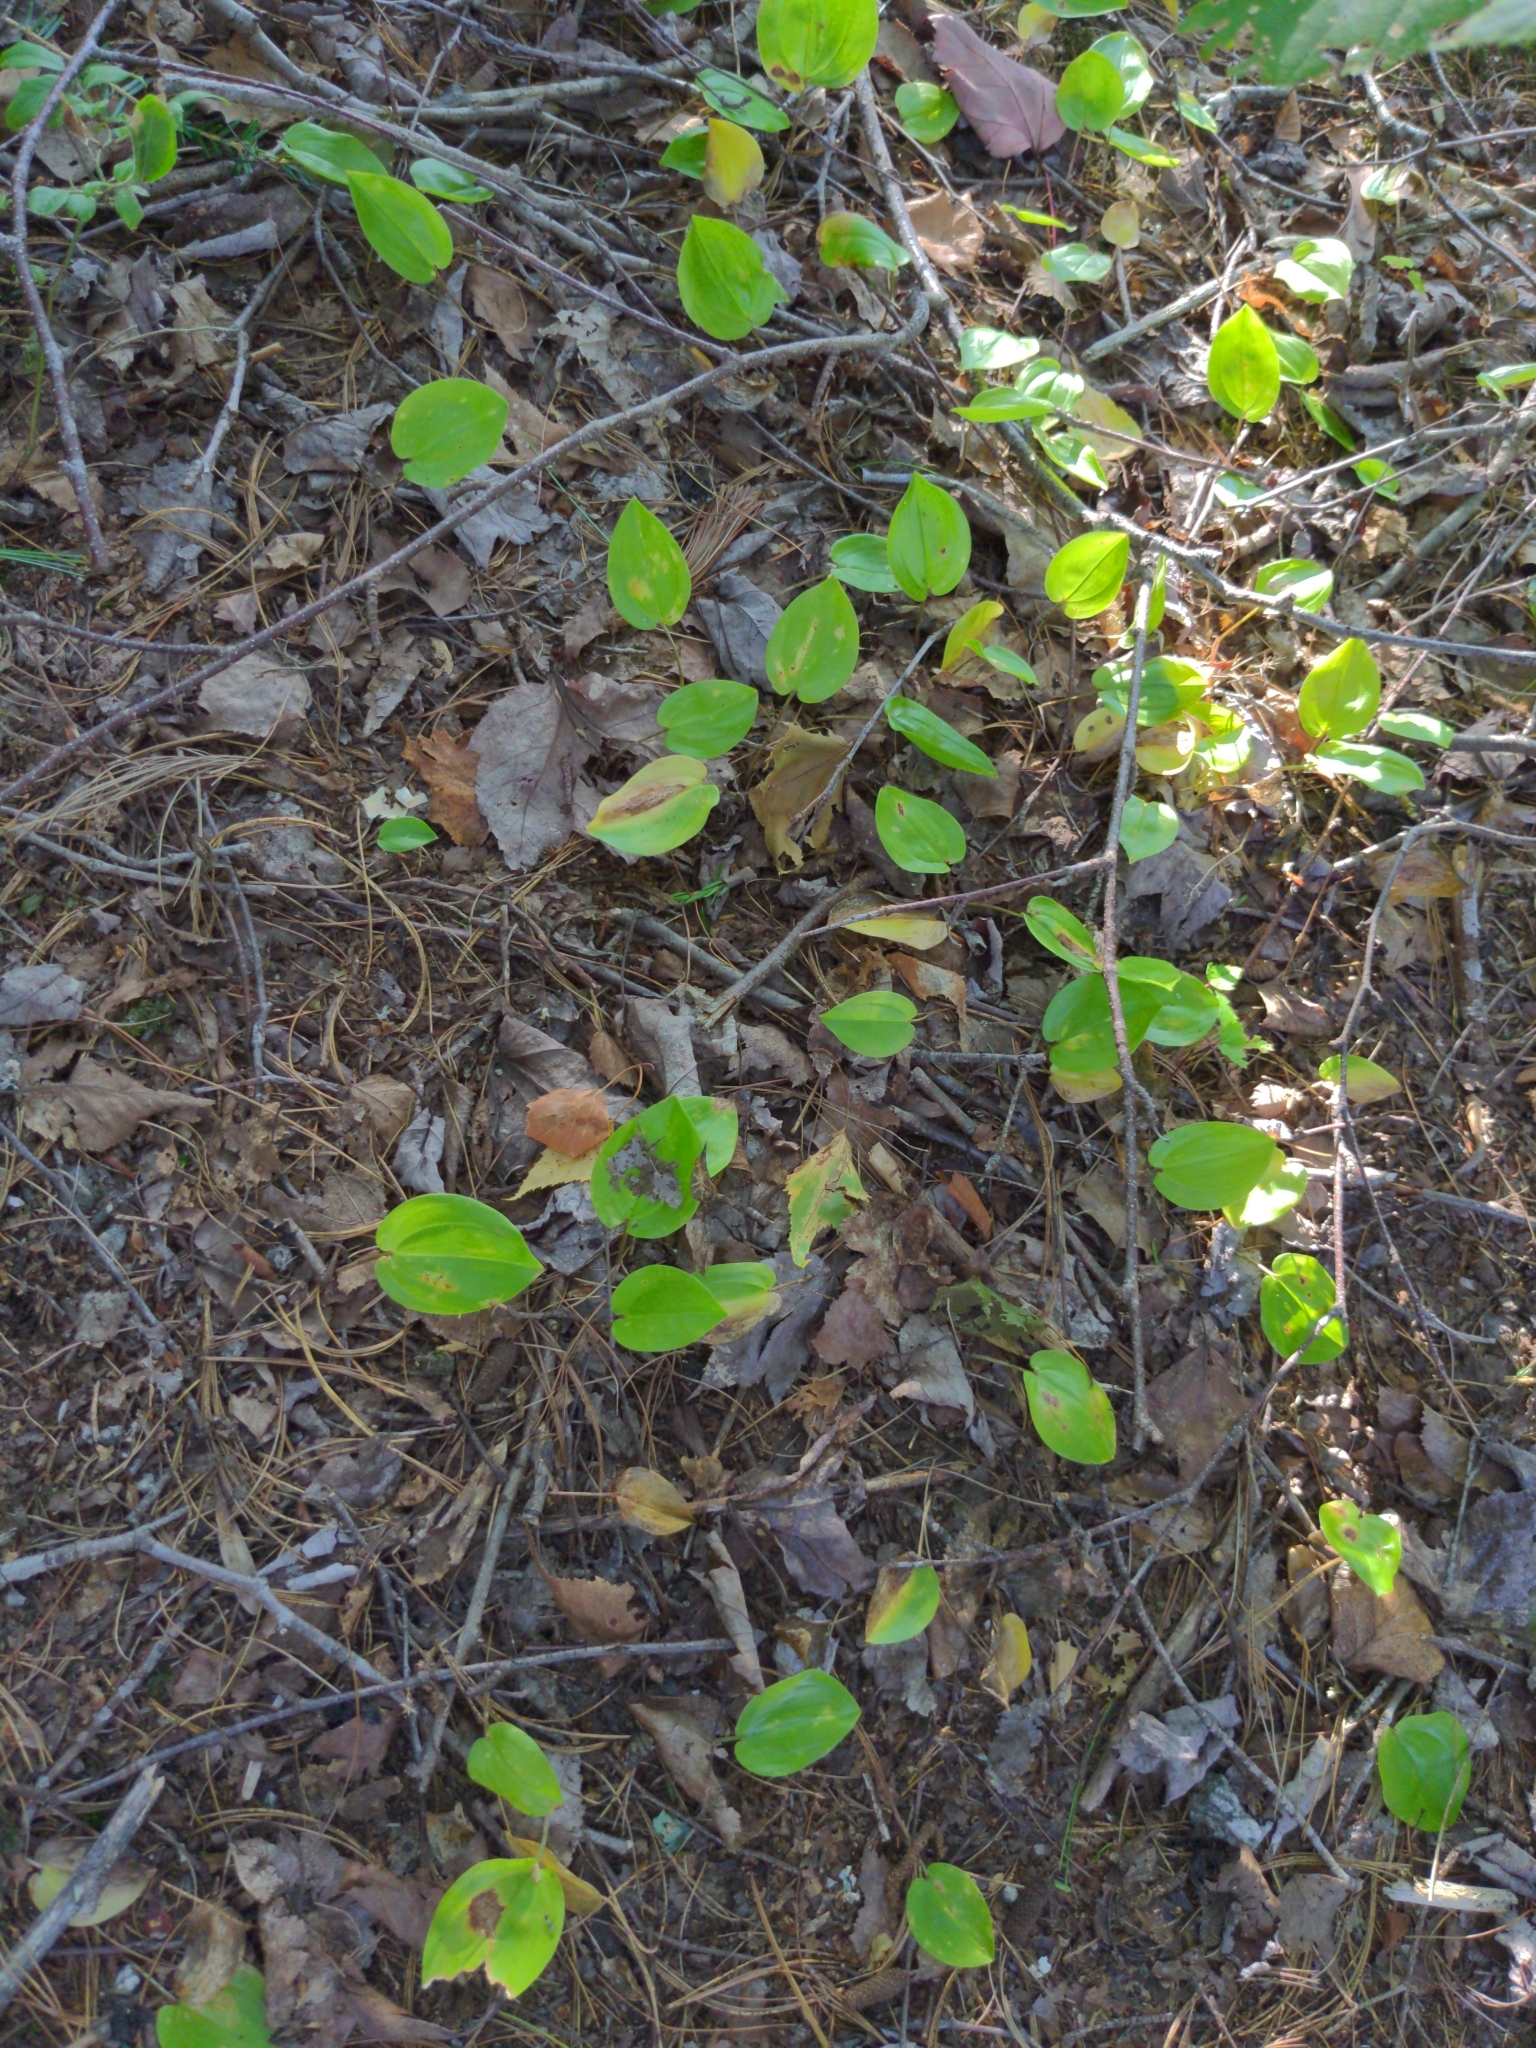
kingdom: Plantae
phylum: Tracheophyta
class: Liliopsida
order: Asparagales
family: Asparagaceae
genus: Maianthemum
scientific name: Maianthemum canadense
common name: False lily-of-the-valley
